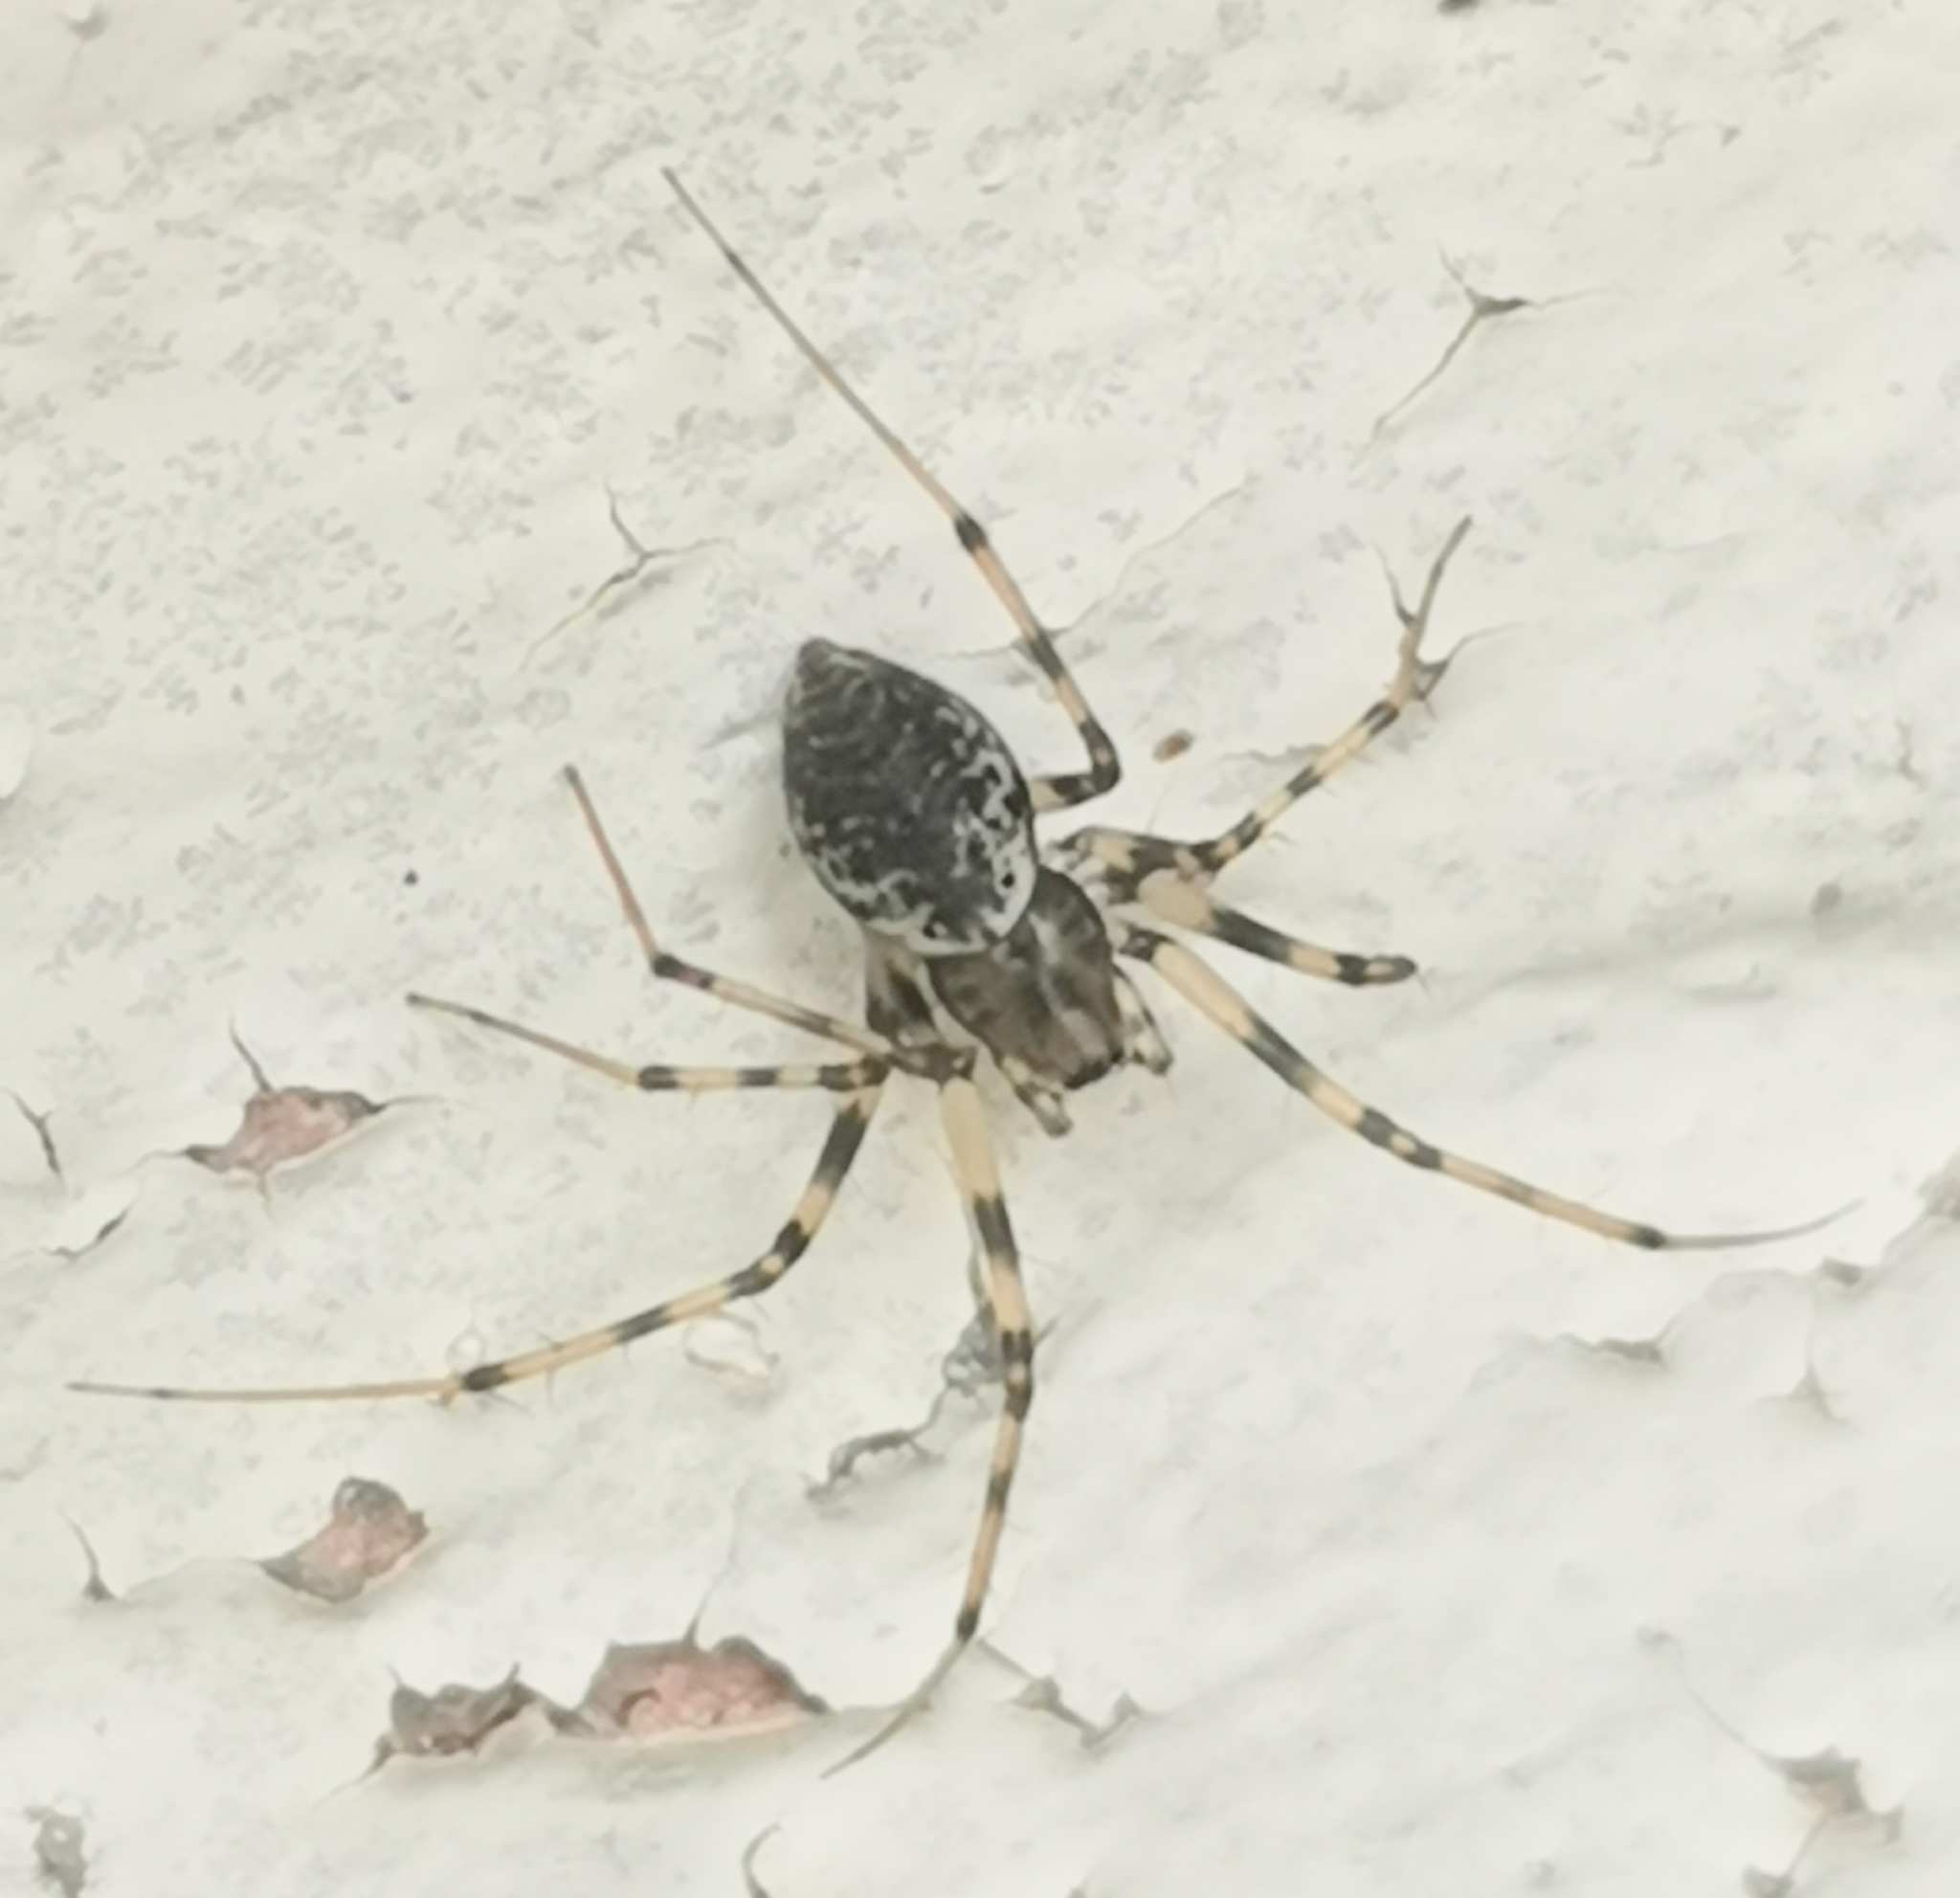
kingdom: Animalia
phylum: Arthropoda
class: Arachnida
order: Araneae
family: Linyphiidae
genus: Drapetisca
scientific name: Drapetisca socialis
